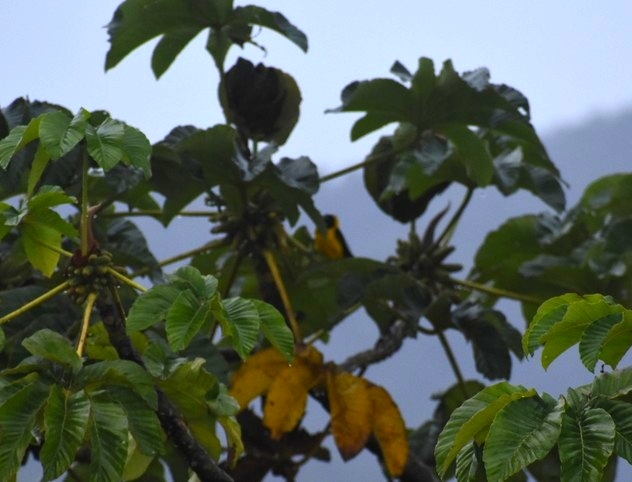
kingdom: Animalia
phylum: Chordata
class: Aves
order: Passeriformes
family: Icteridae
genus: Icterus
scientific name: Icterus chrysater
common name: Yellow-backed oriole
